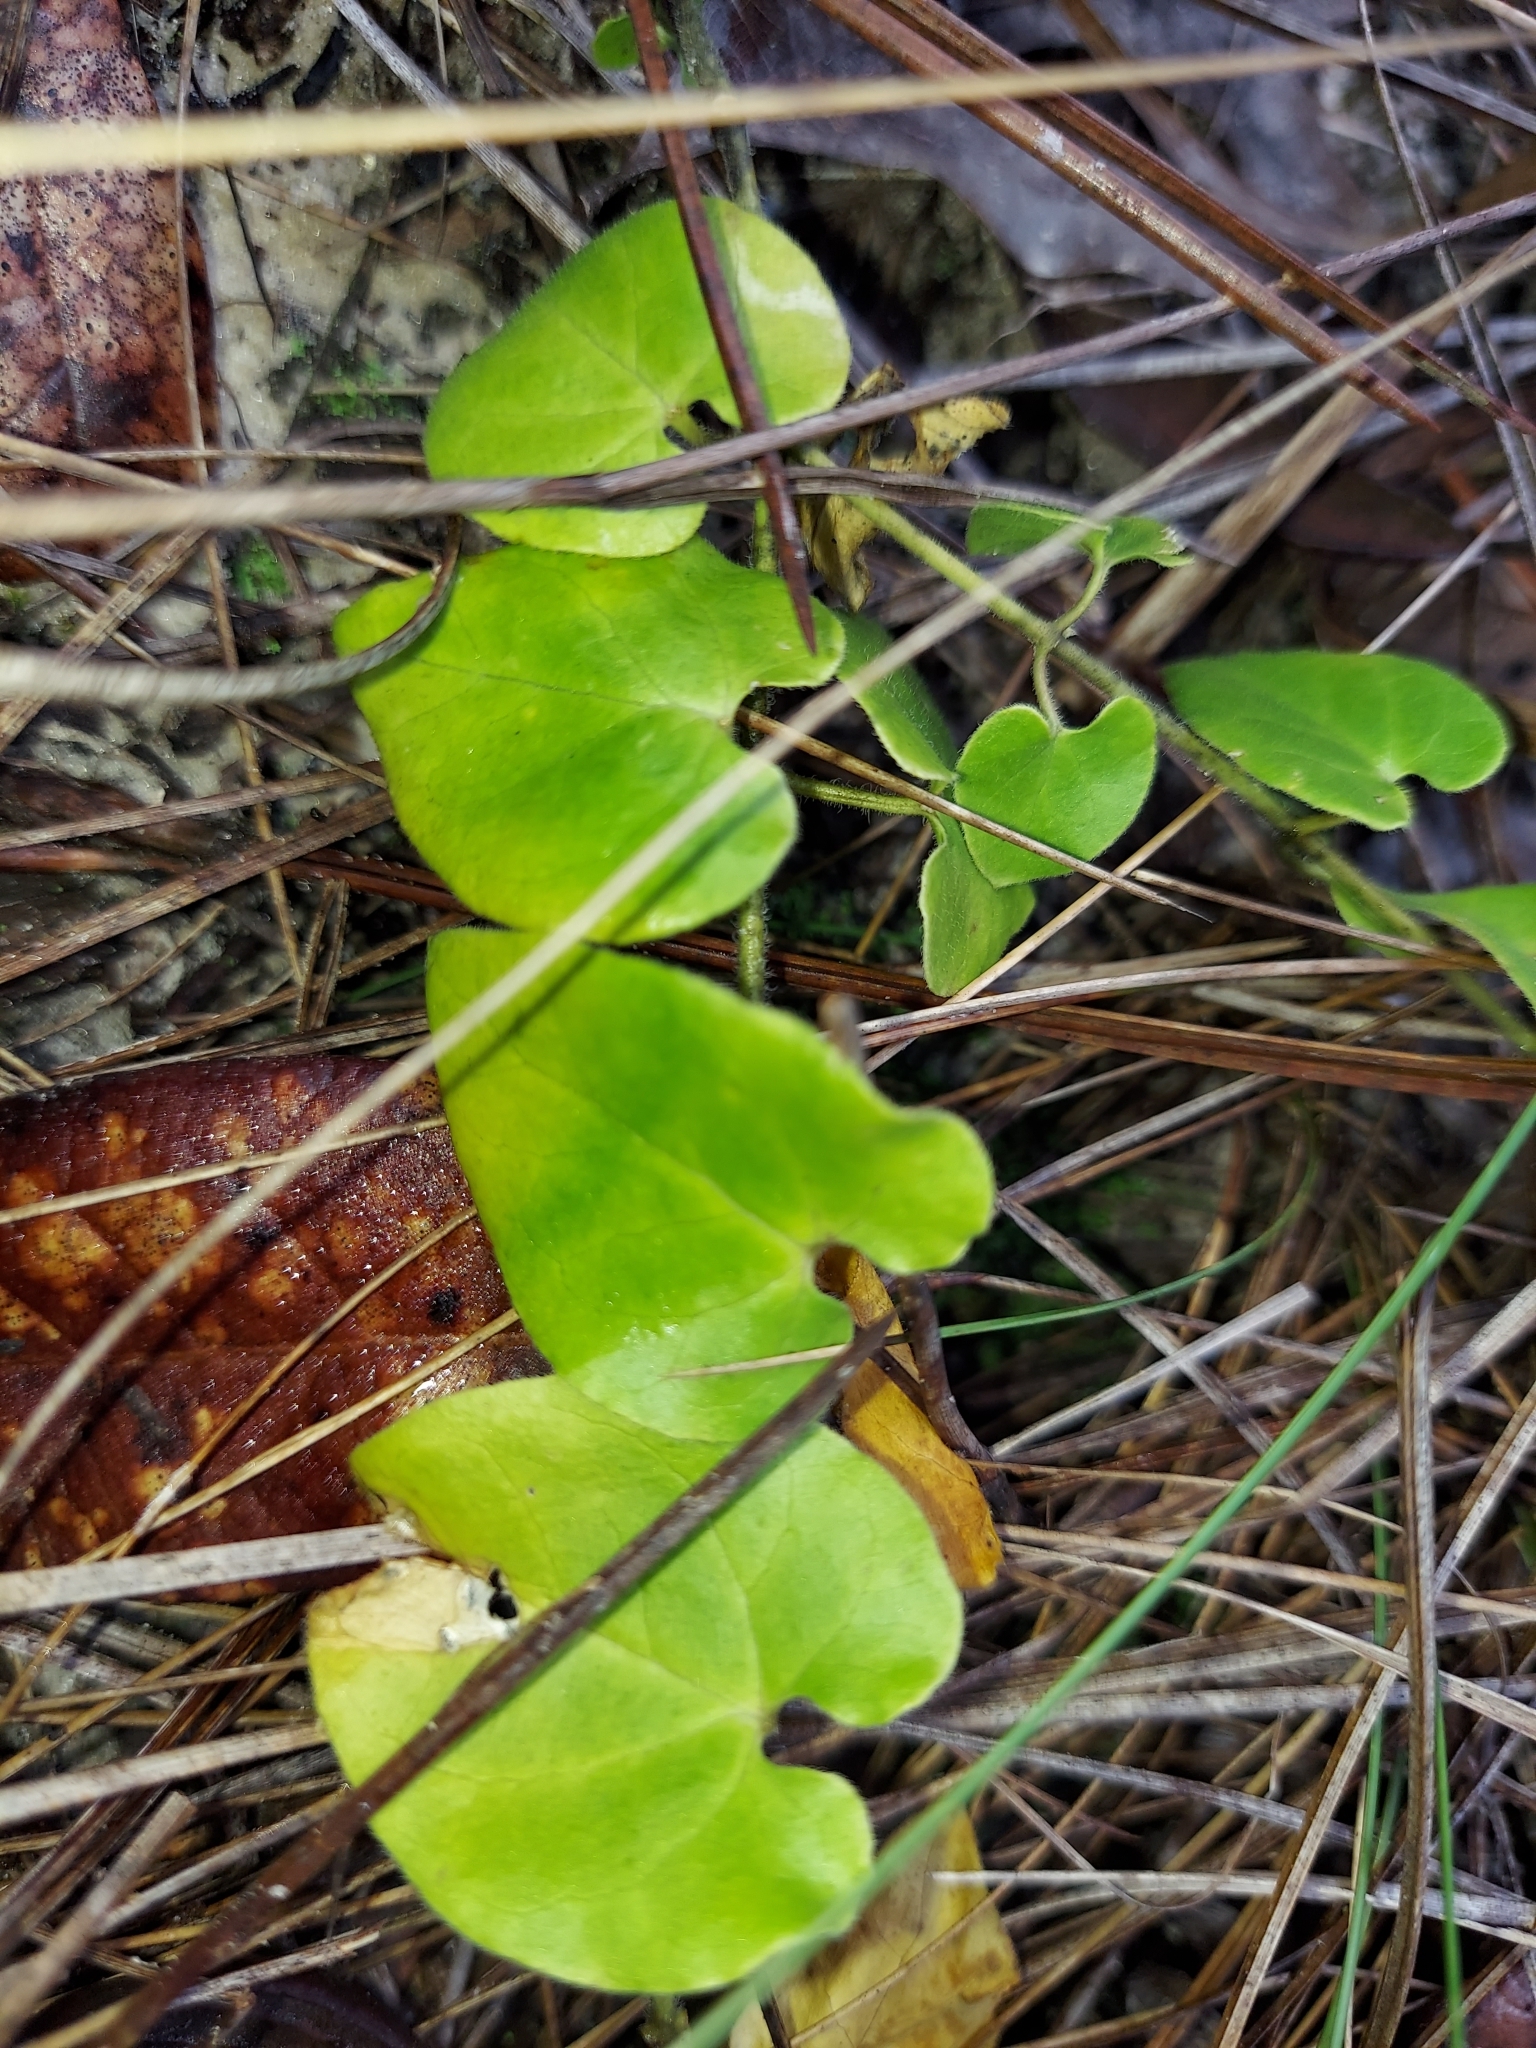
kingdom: Plantae
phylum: Tracheophyta
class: Magnoliopsida
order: Gentianales
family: Apocynaceae
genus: Chthamalia
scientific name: Chthamalia pubiflora
